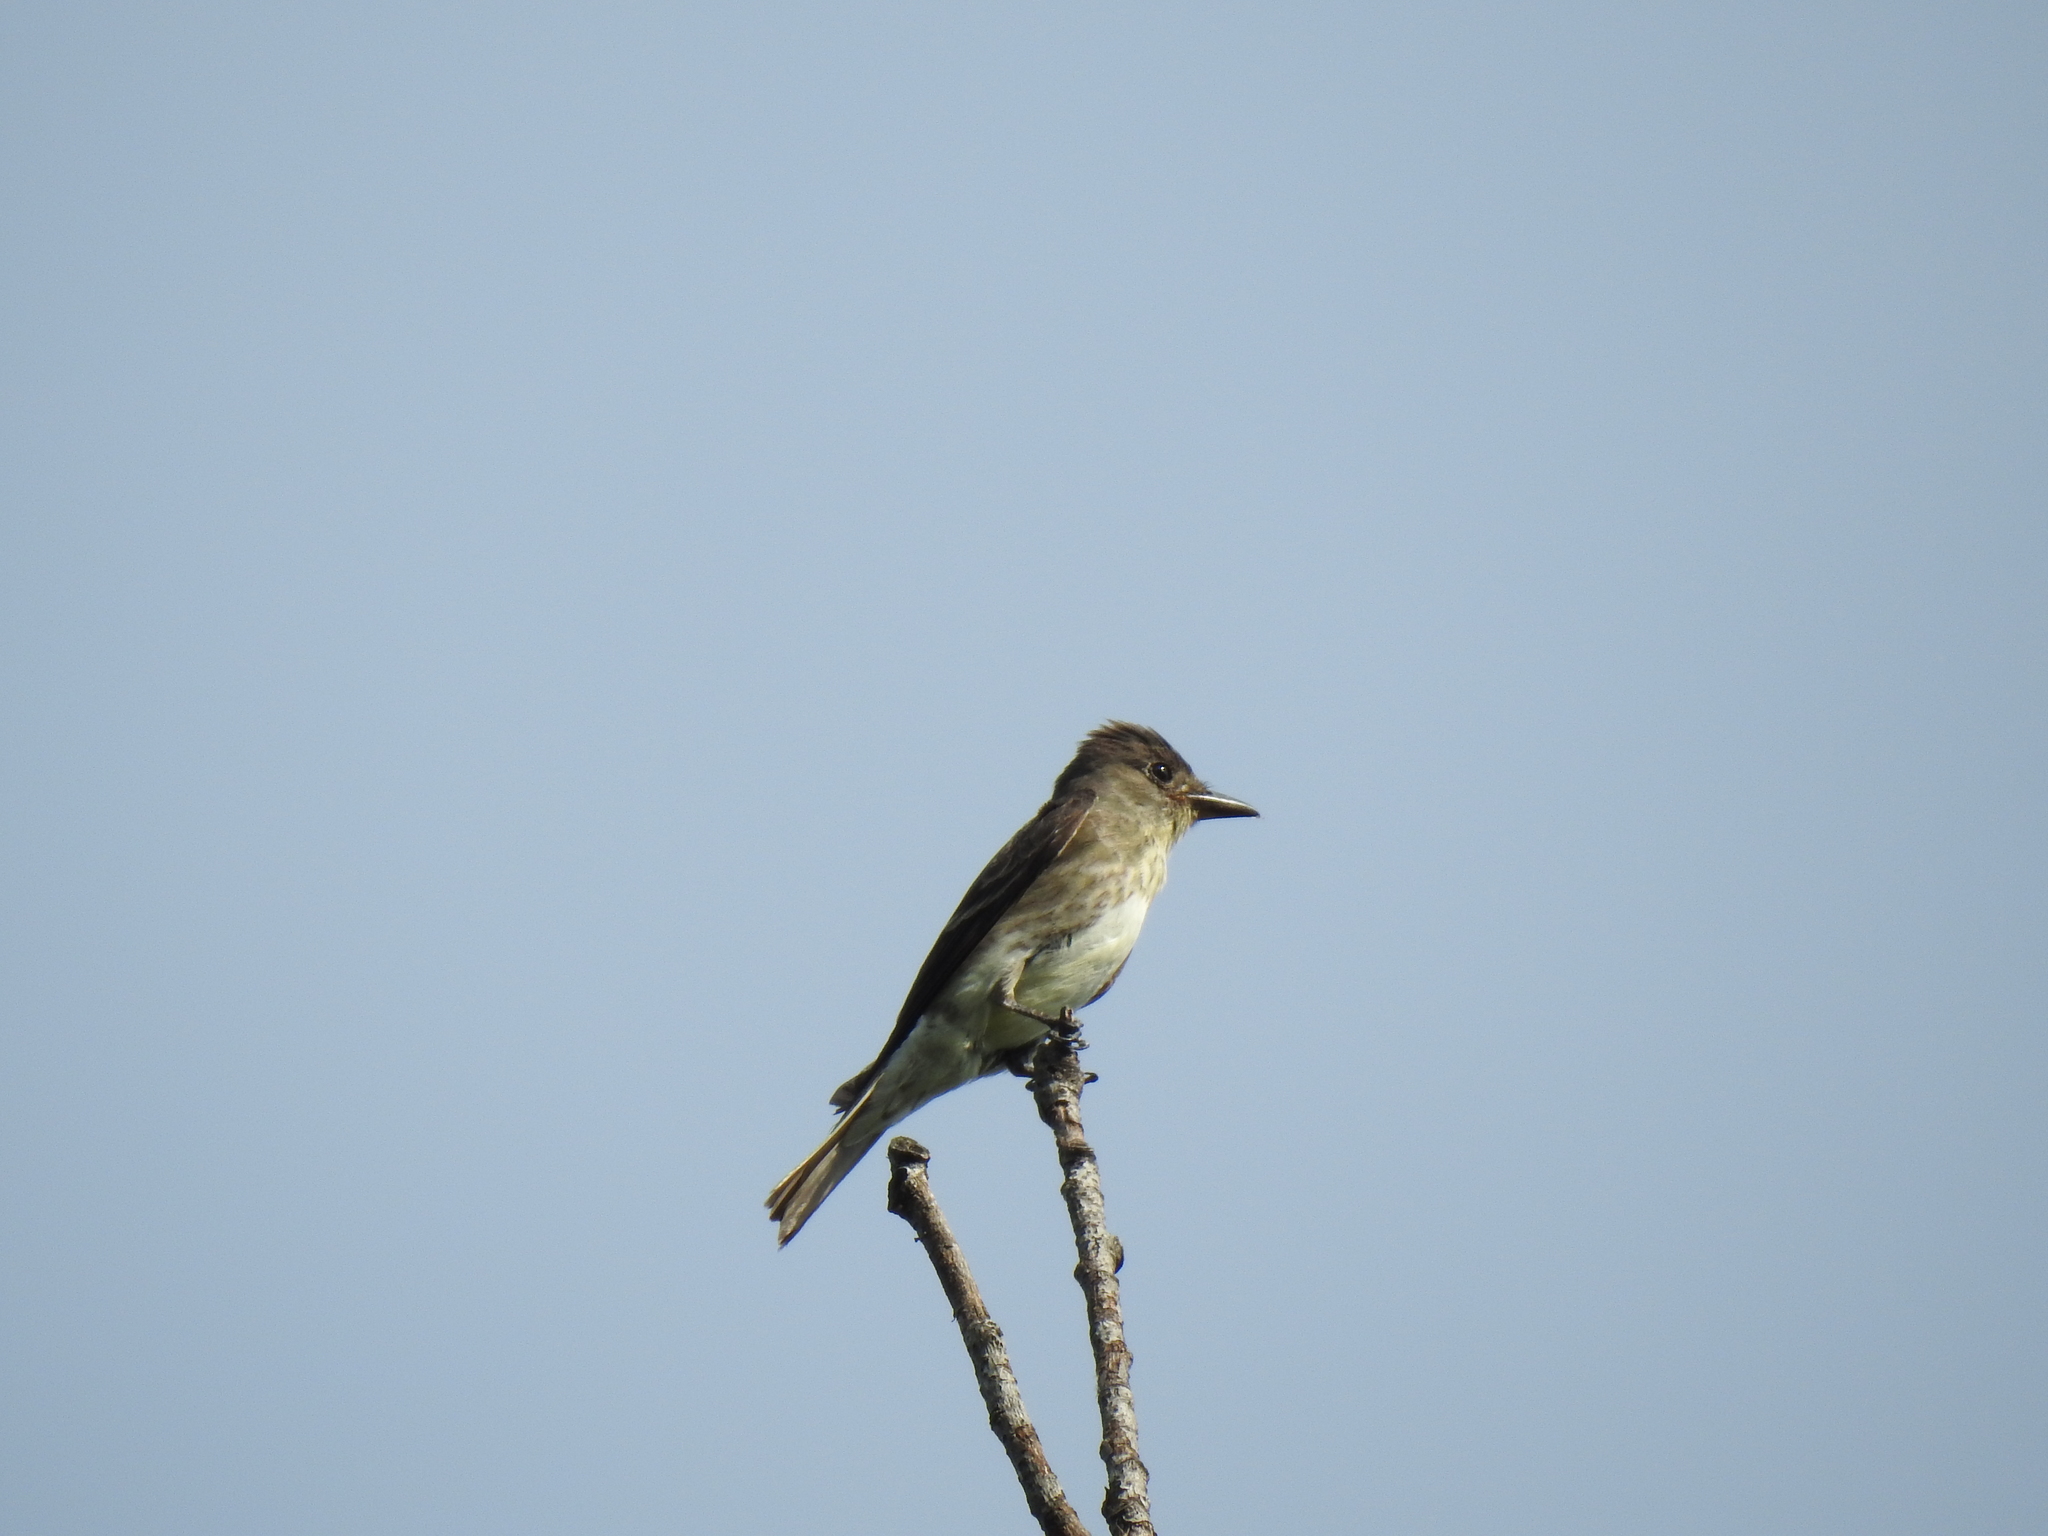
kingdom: Animalia
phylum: Chordata
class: Aves
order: Passeriformes
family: Tyrannidae
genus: Contopus
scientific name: Contopus cooperi
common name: Olive-sided flycatcher
